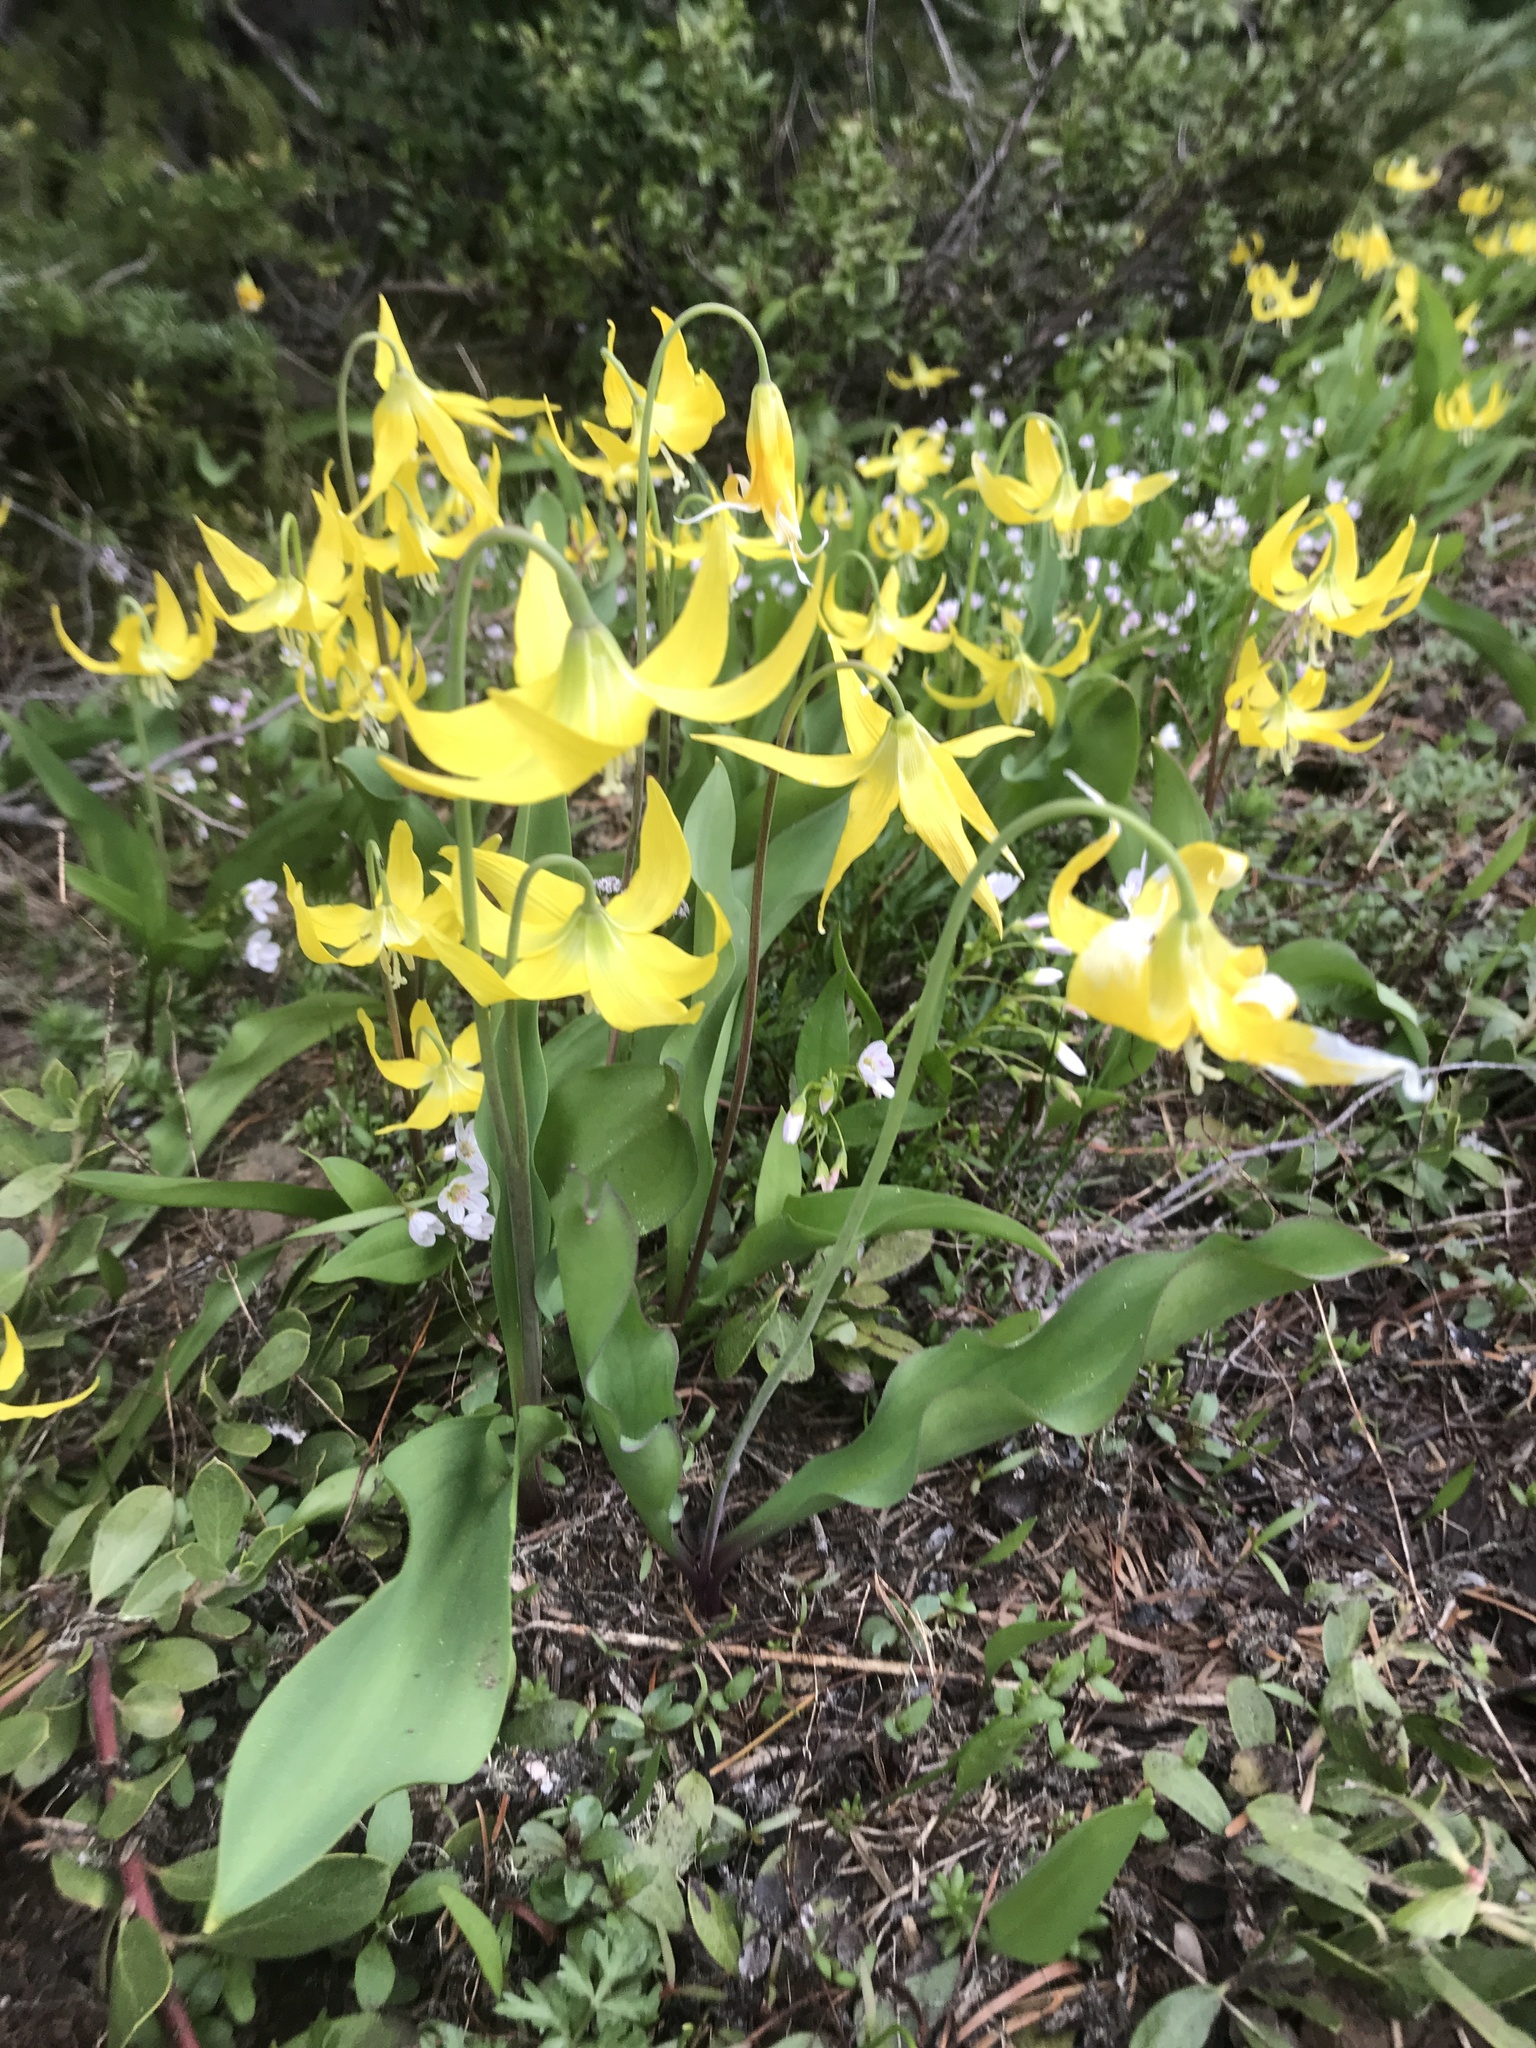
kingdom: Plantae
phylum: Tracheophyta
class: Liliopsida
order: Liliales
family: Liliaceae
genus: Erythronium
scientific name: Erythronium grandiflorum
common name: Avalanche-lily
